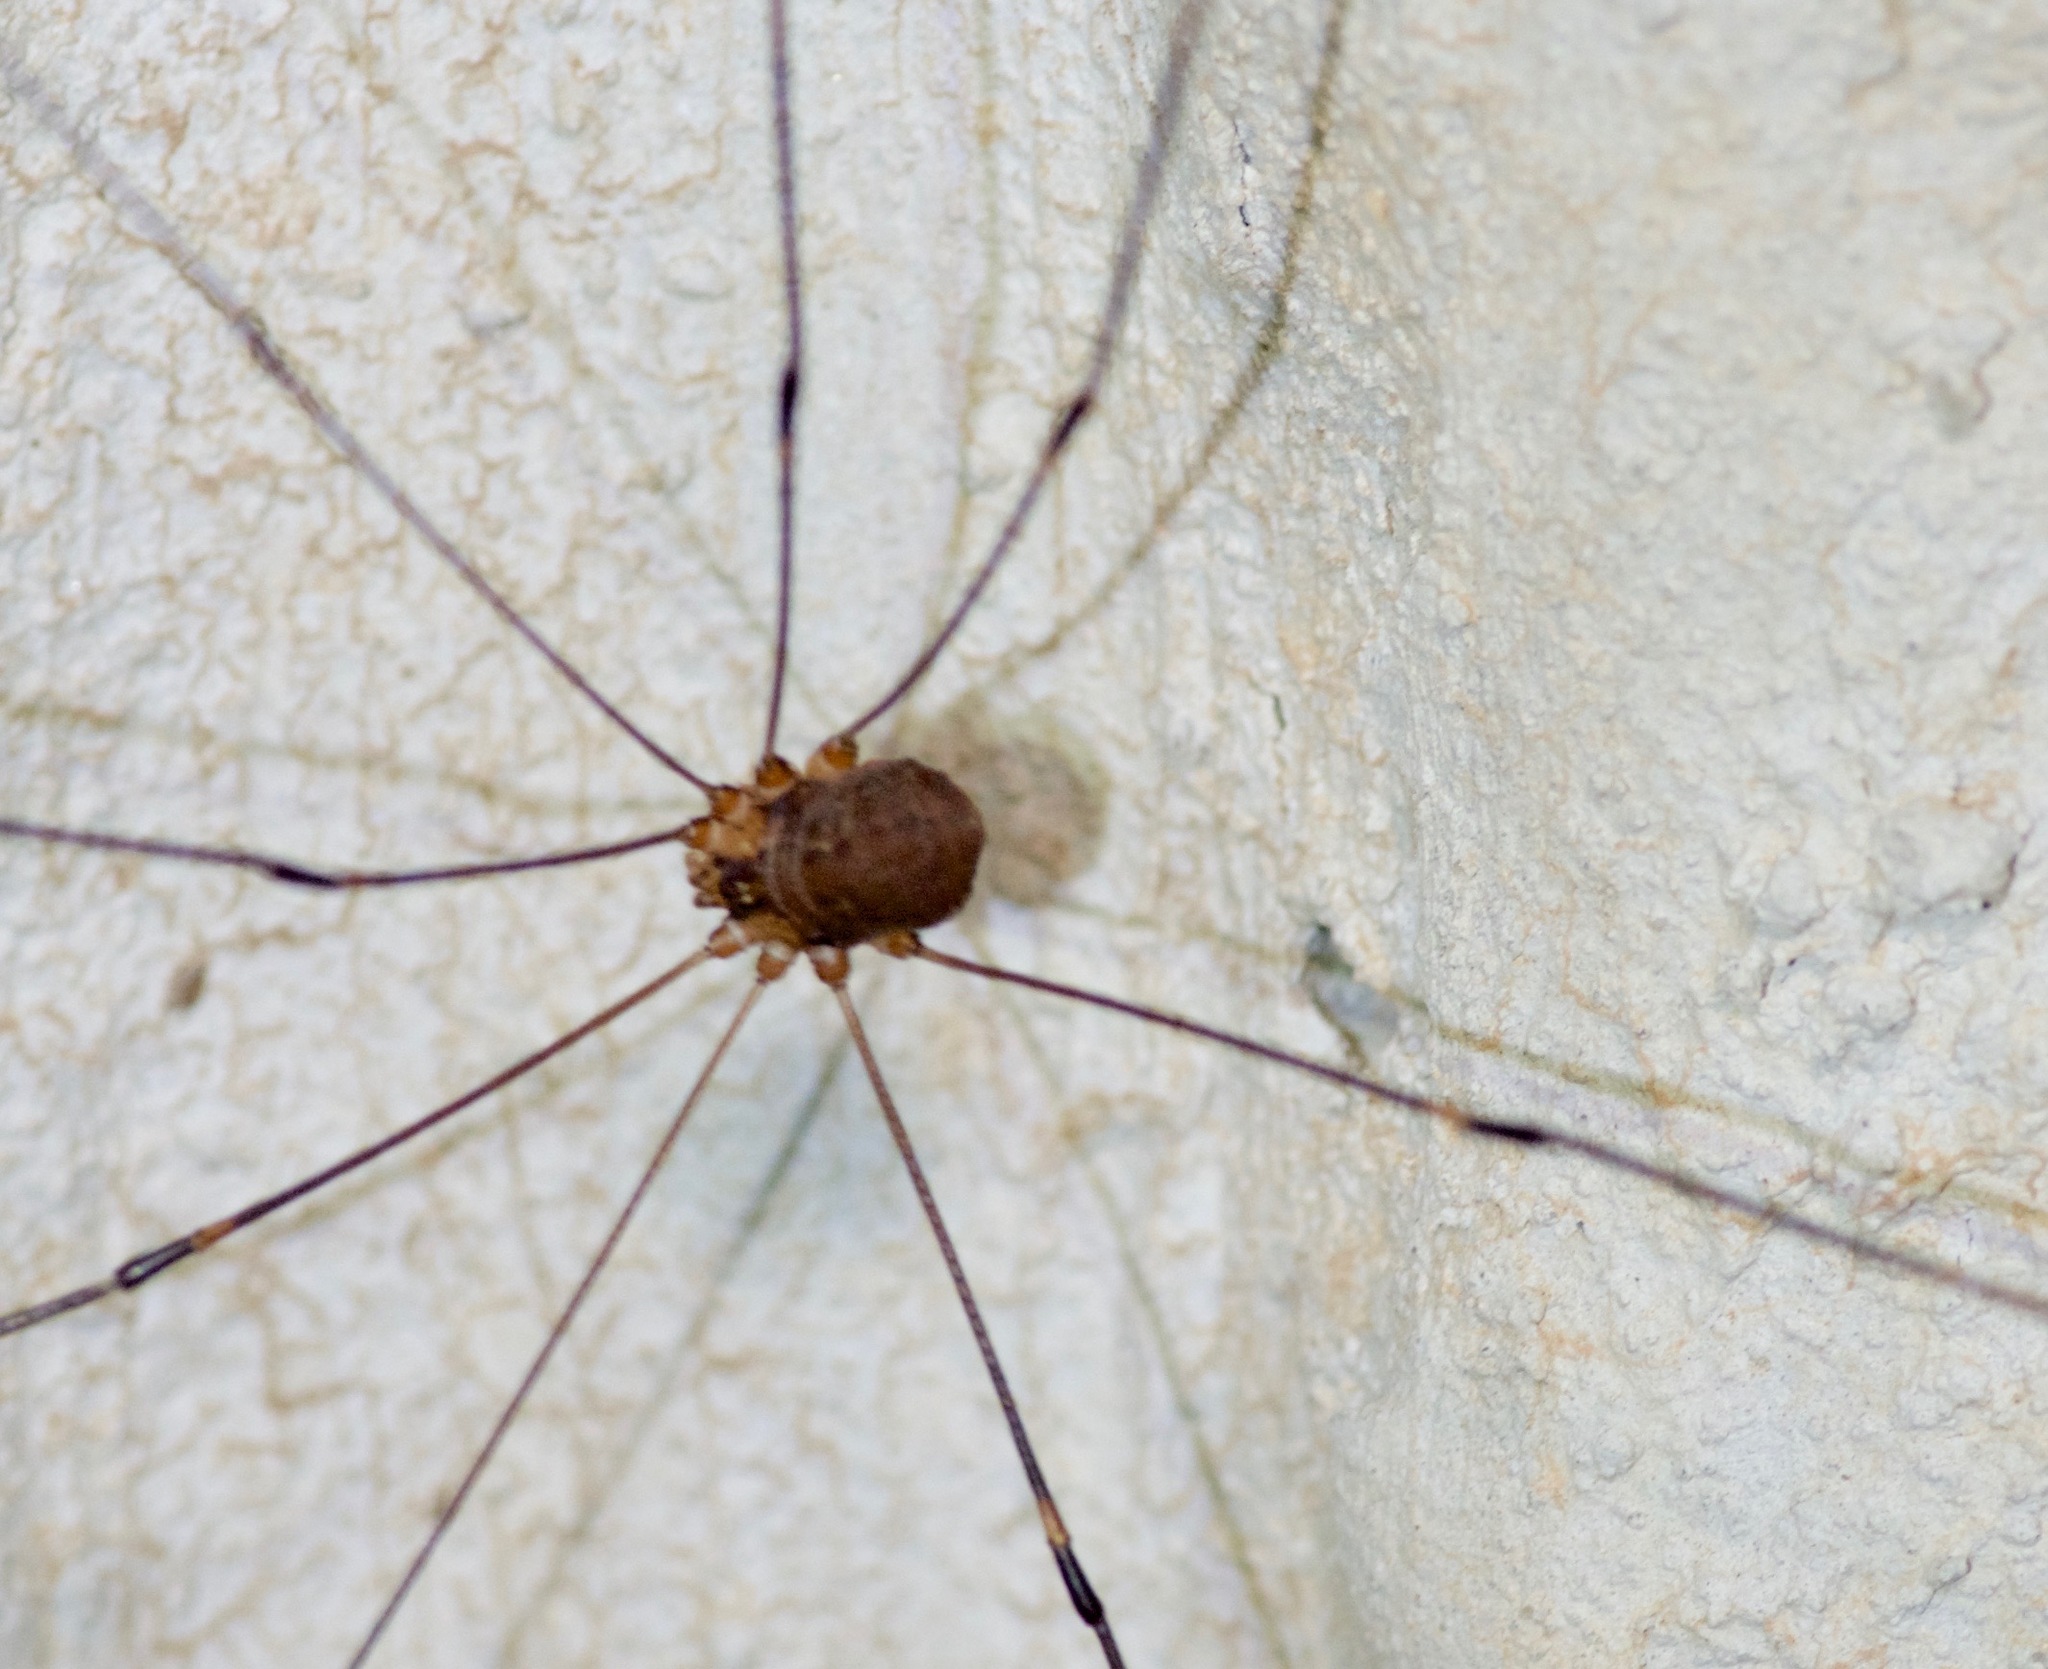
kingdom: Animalia
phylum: Arthropoda
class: Arachnida
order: Opiliones
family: Sclerosomatidae
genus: Leiobunum
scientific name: Leiobunum townsendi
